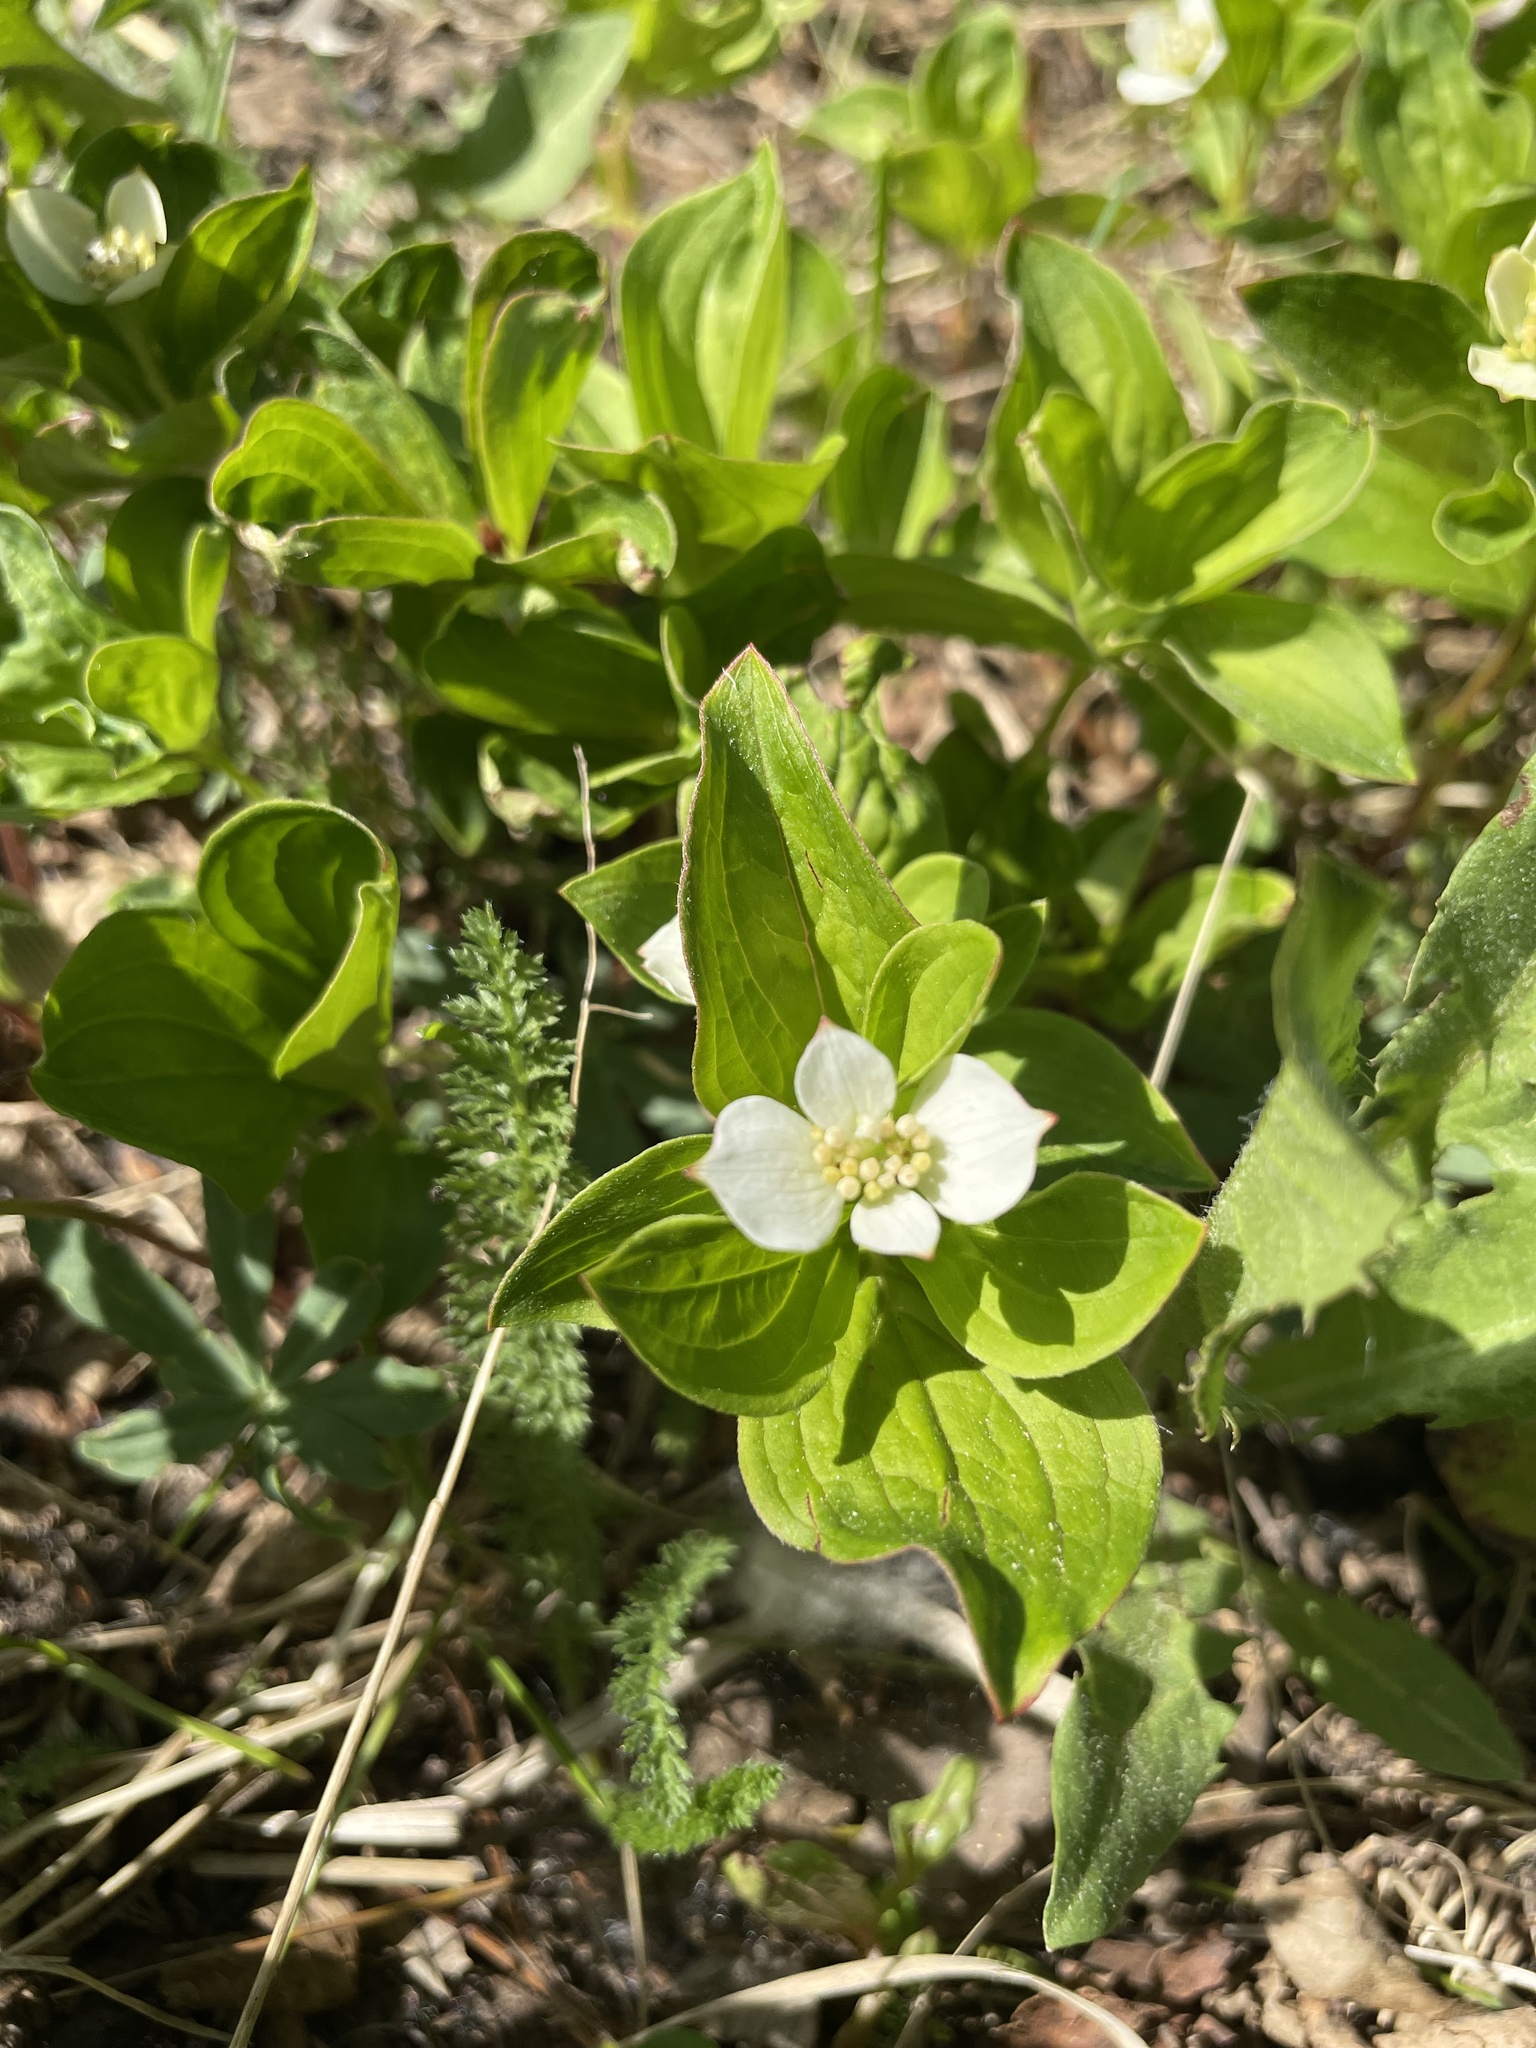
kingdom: Plantae
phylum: Tracheophyta
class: Magnoliopsida
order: Cornales
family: Cornaceae
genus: Cornus
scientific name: Cornus canadensis
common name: Creeping dogwood
